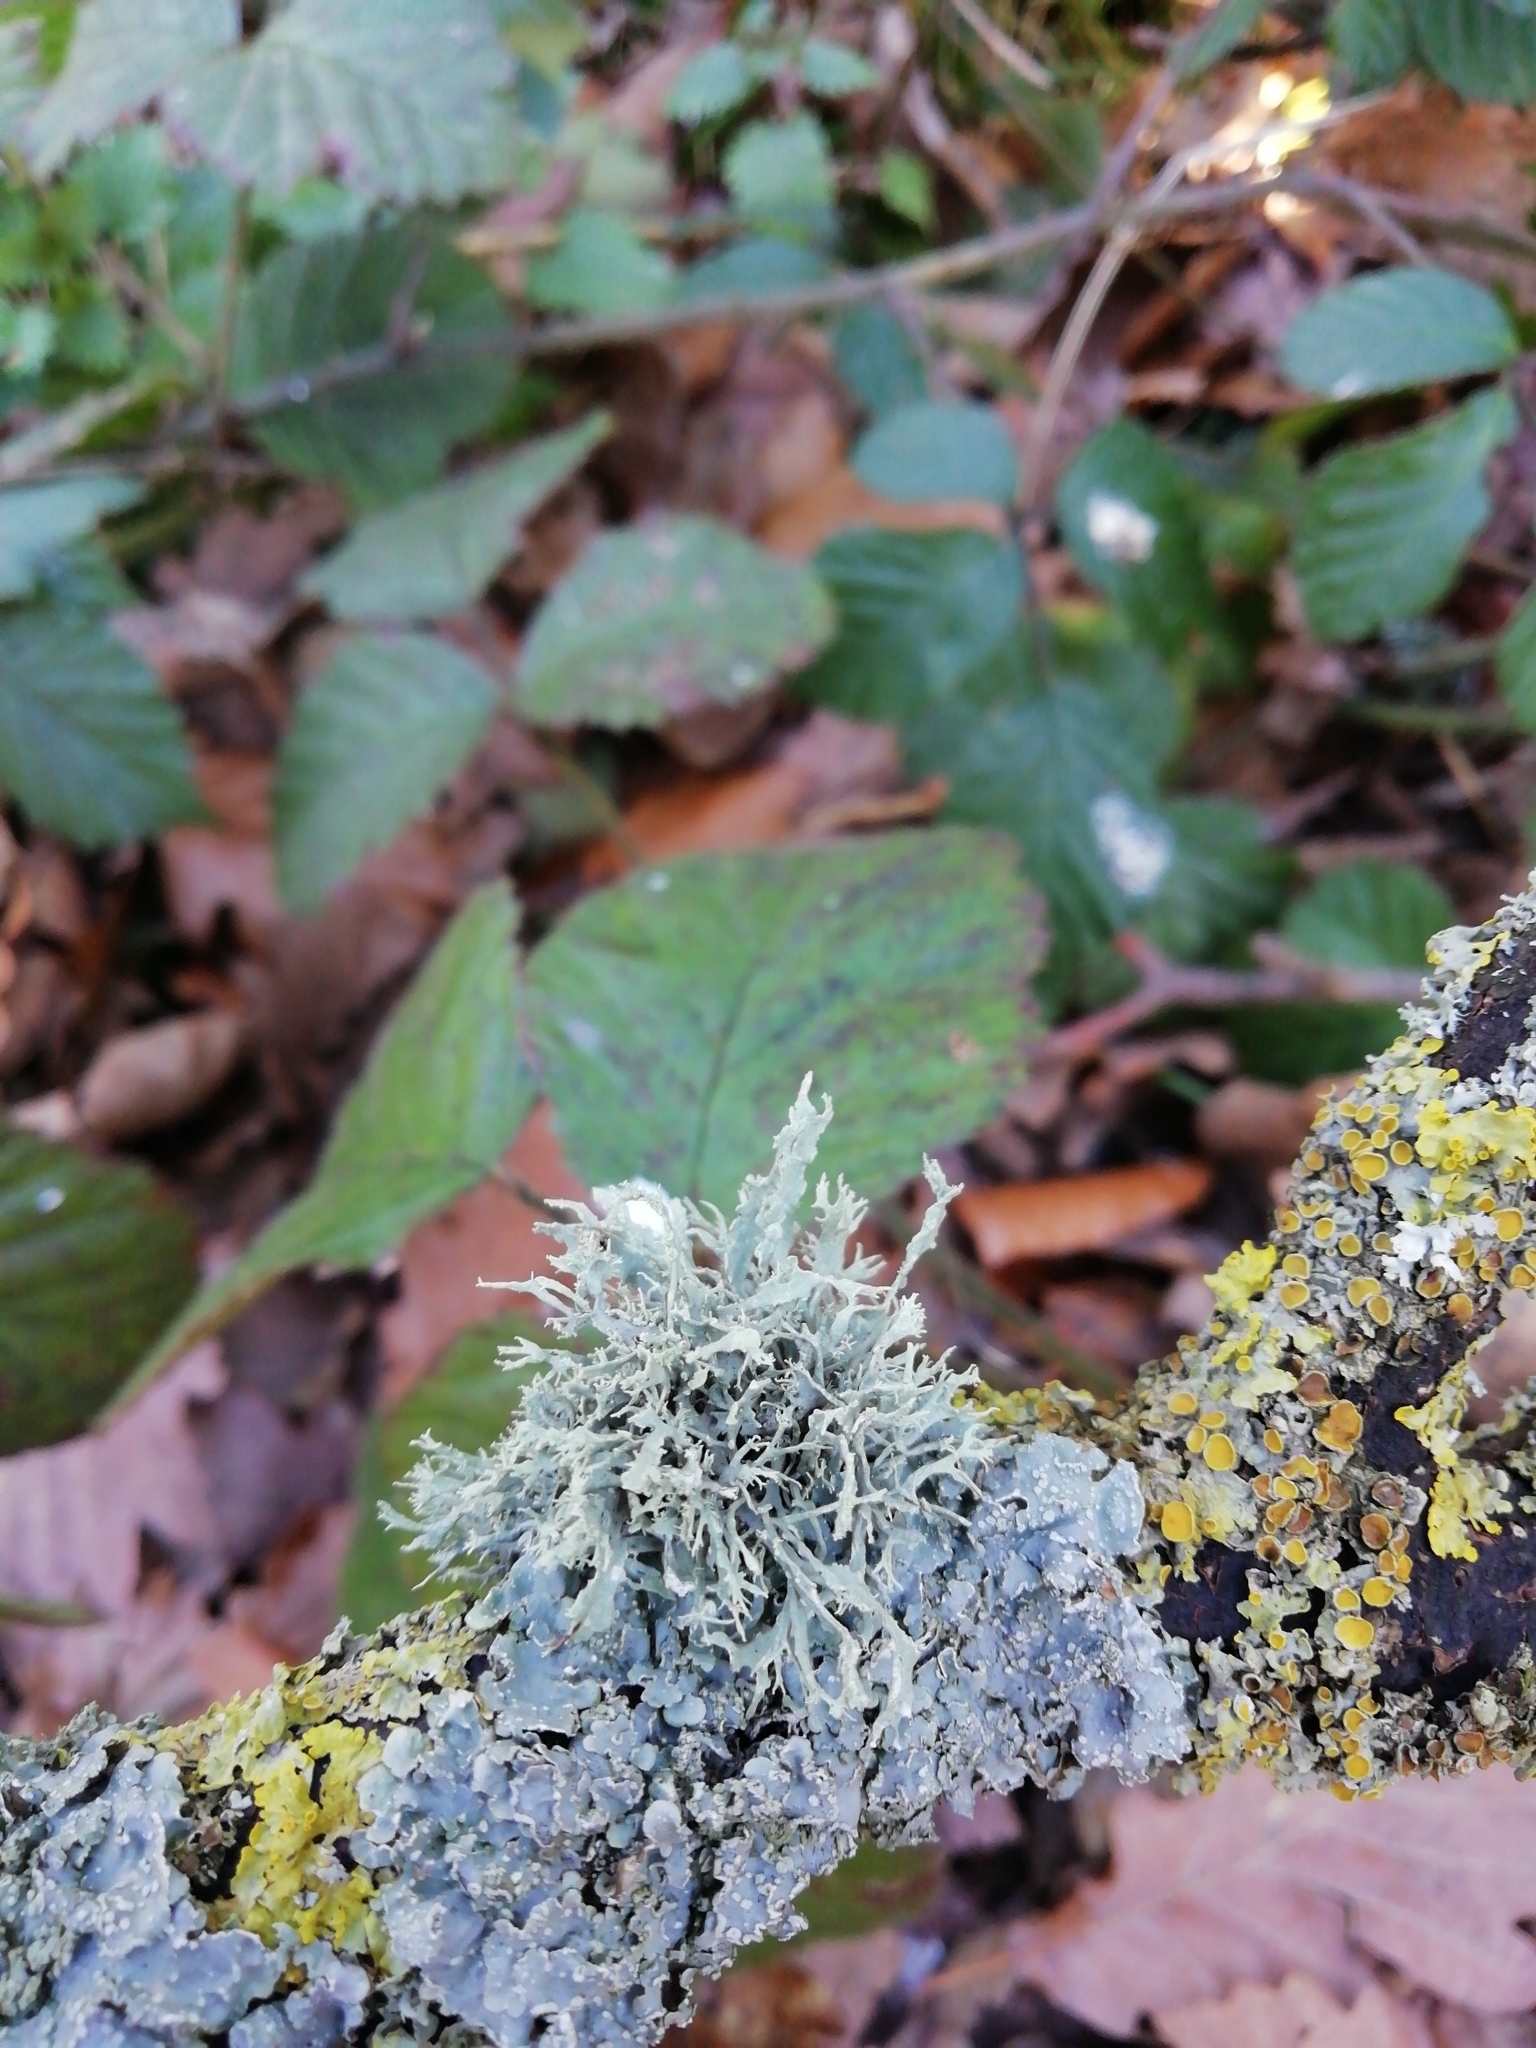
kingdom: Fungi
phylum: Ascomycota
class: Lecanoromycetes
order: Lecanorales
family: Ramalinaceae
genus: Ramalina
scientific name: Ramalina farinacea
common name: Farinose cartilage lichen
